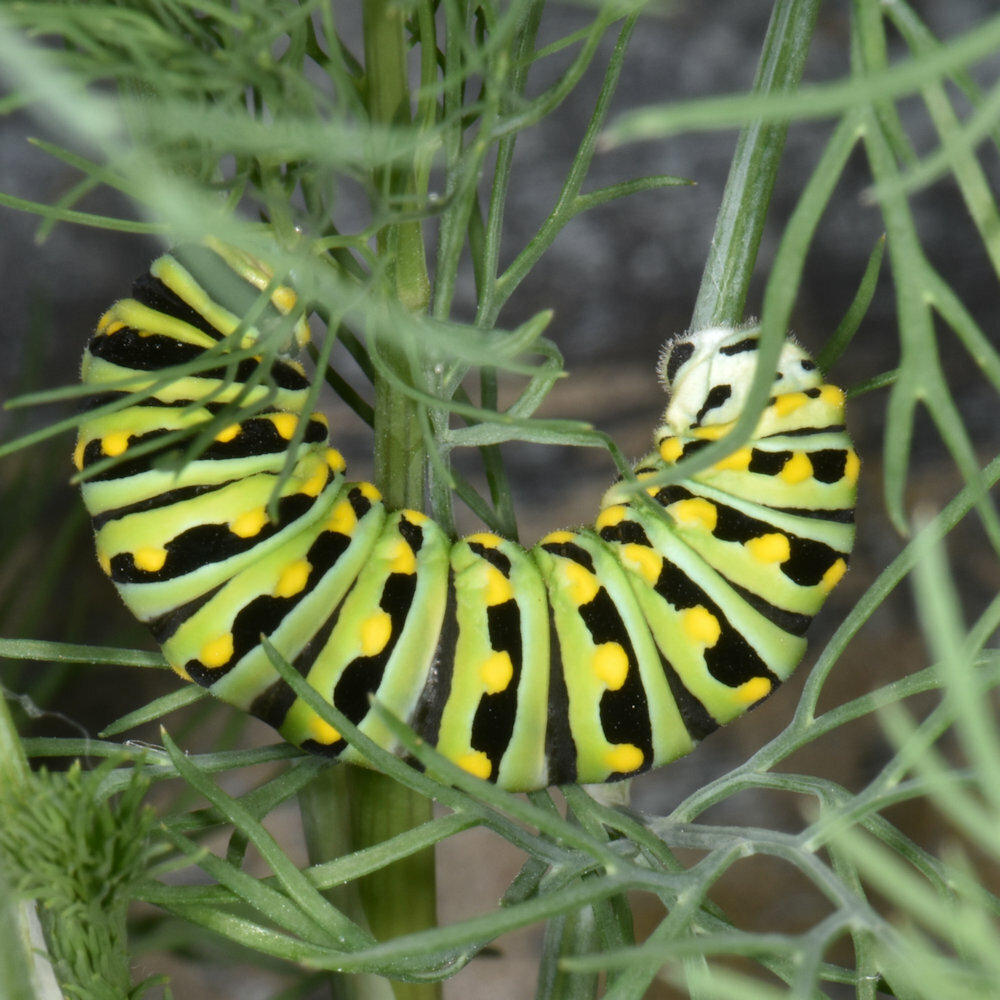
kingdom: Animalia
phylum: Arthropoda
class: Insecta
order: Lepidoptera
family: Papilionidae
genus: Papilio
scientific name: Papilio polyxenes
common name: Black swallowtail
